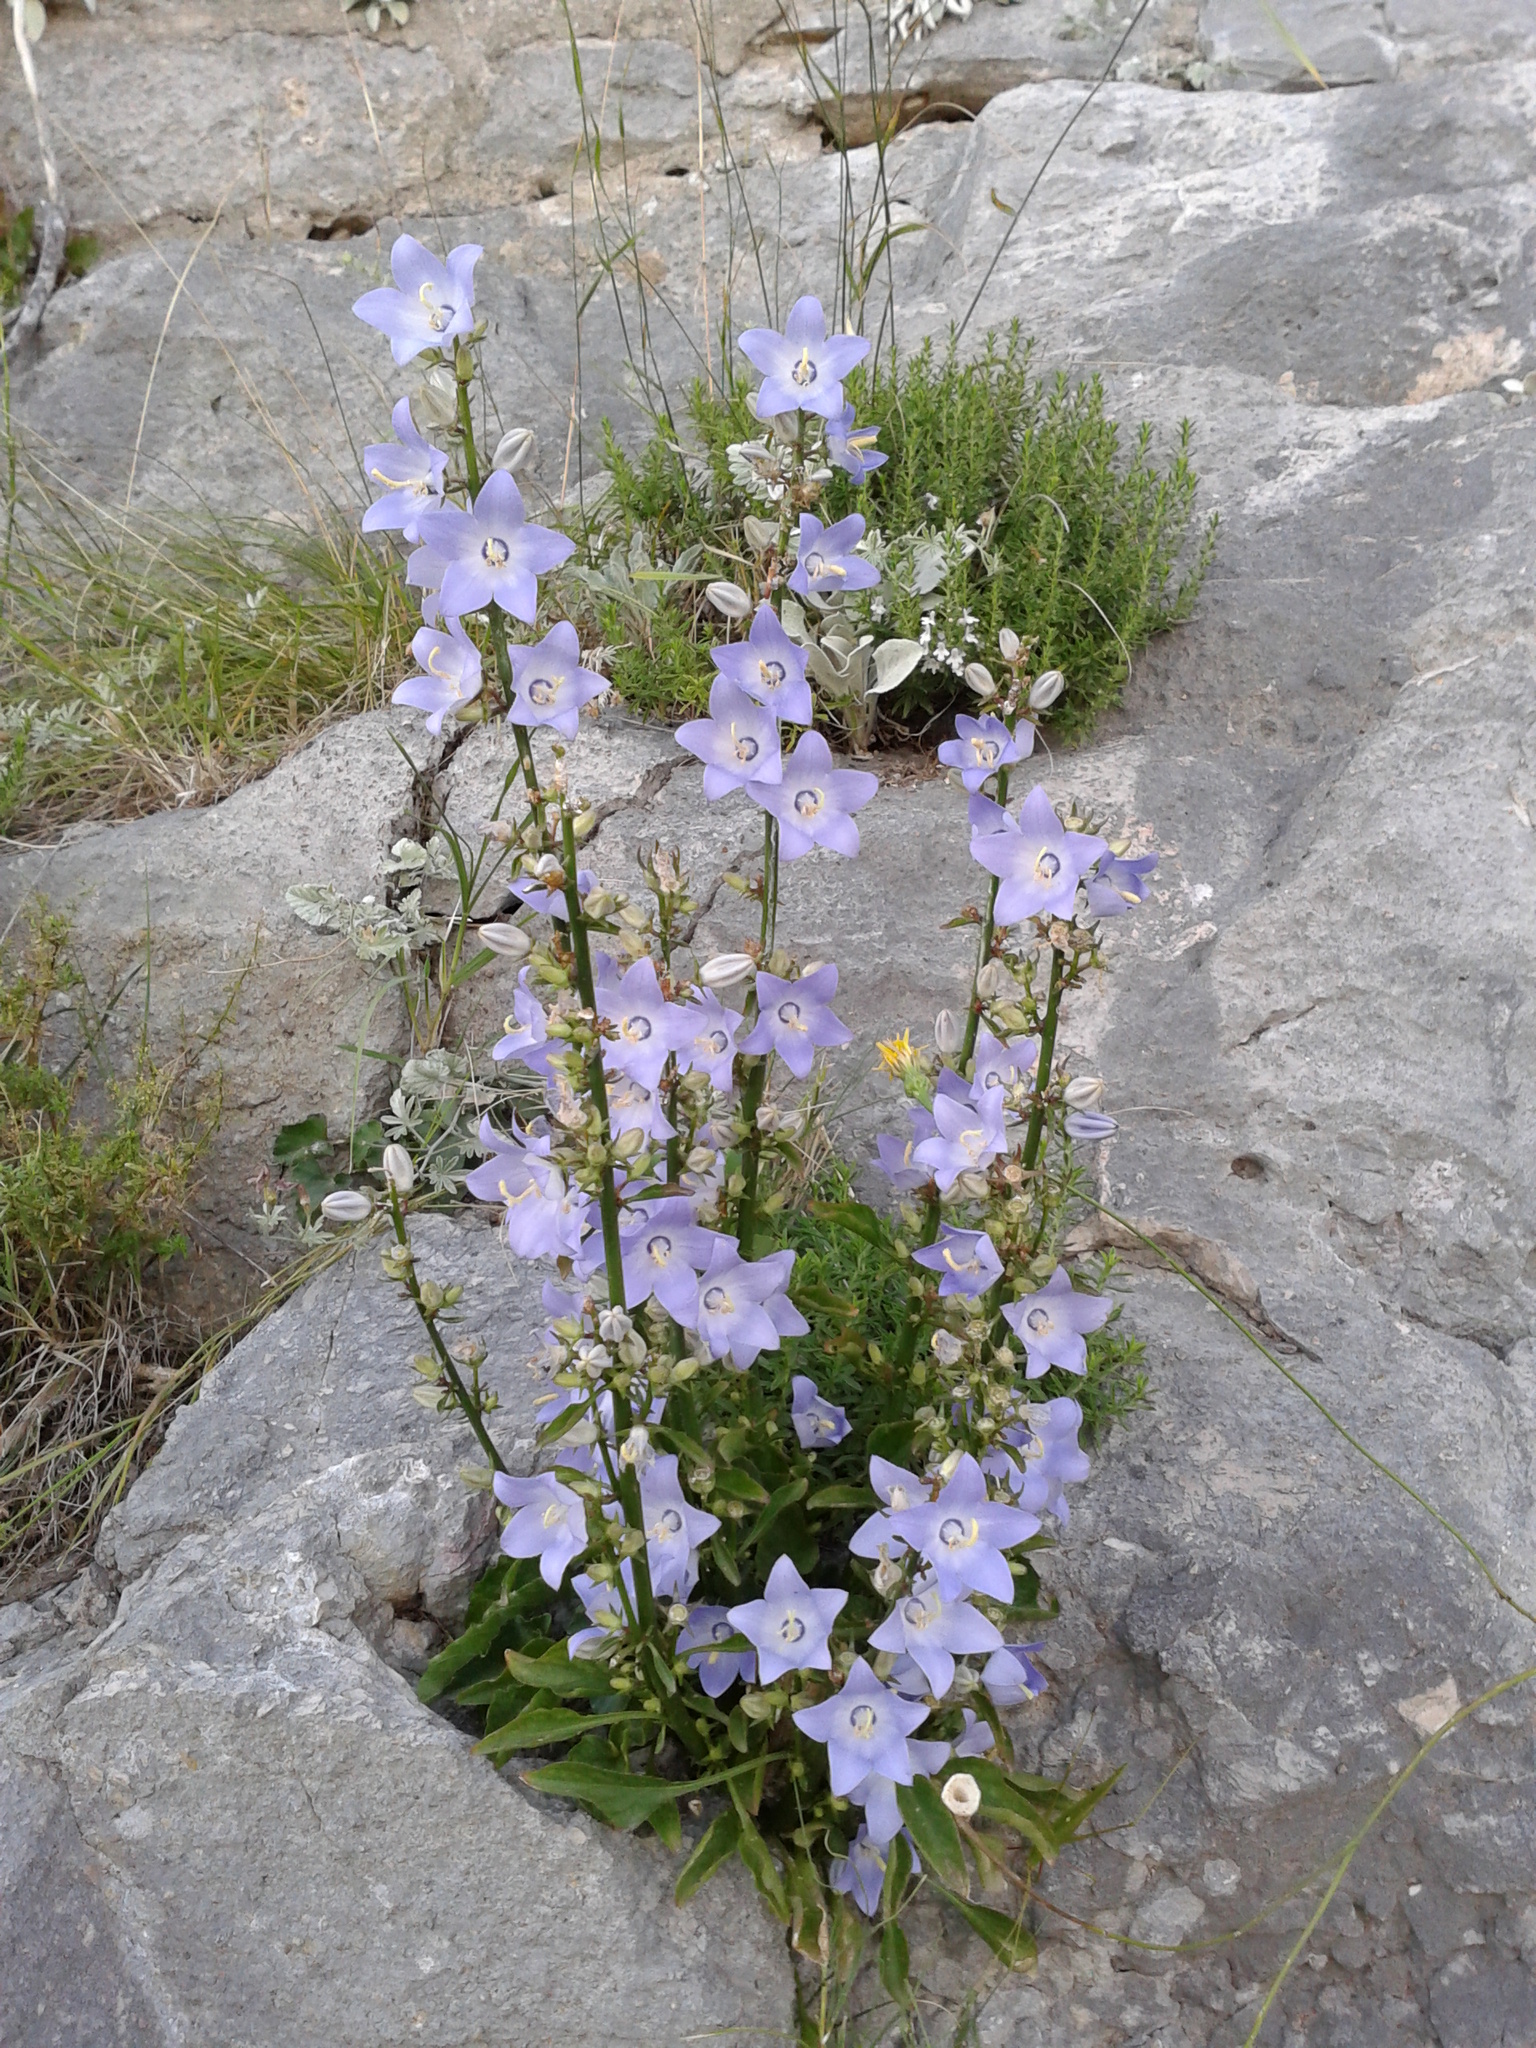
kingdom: Plantae
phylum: Tracheophyta
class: Magnoliopsida
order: Asterales
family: Campanulaceae
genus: Campanula
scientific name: Campanula pyramidalis
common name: Chimney bellflower
